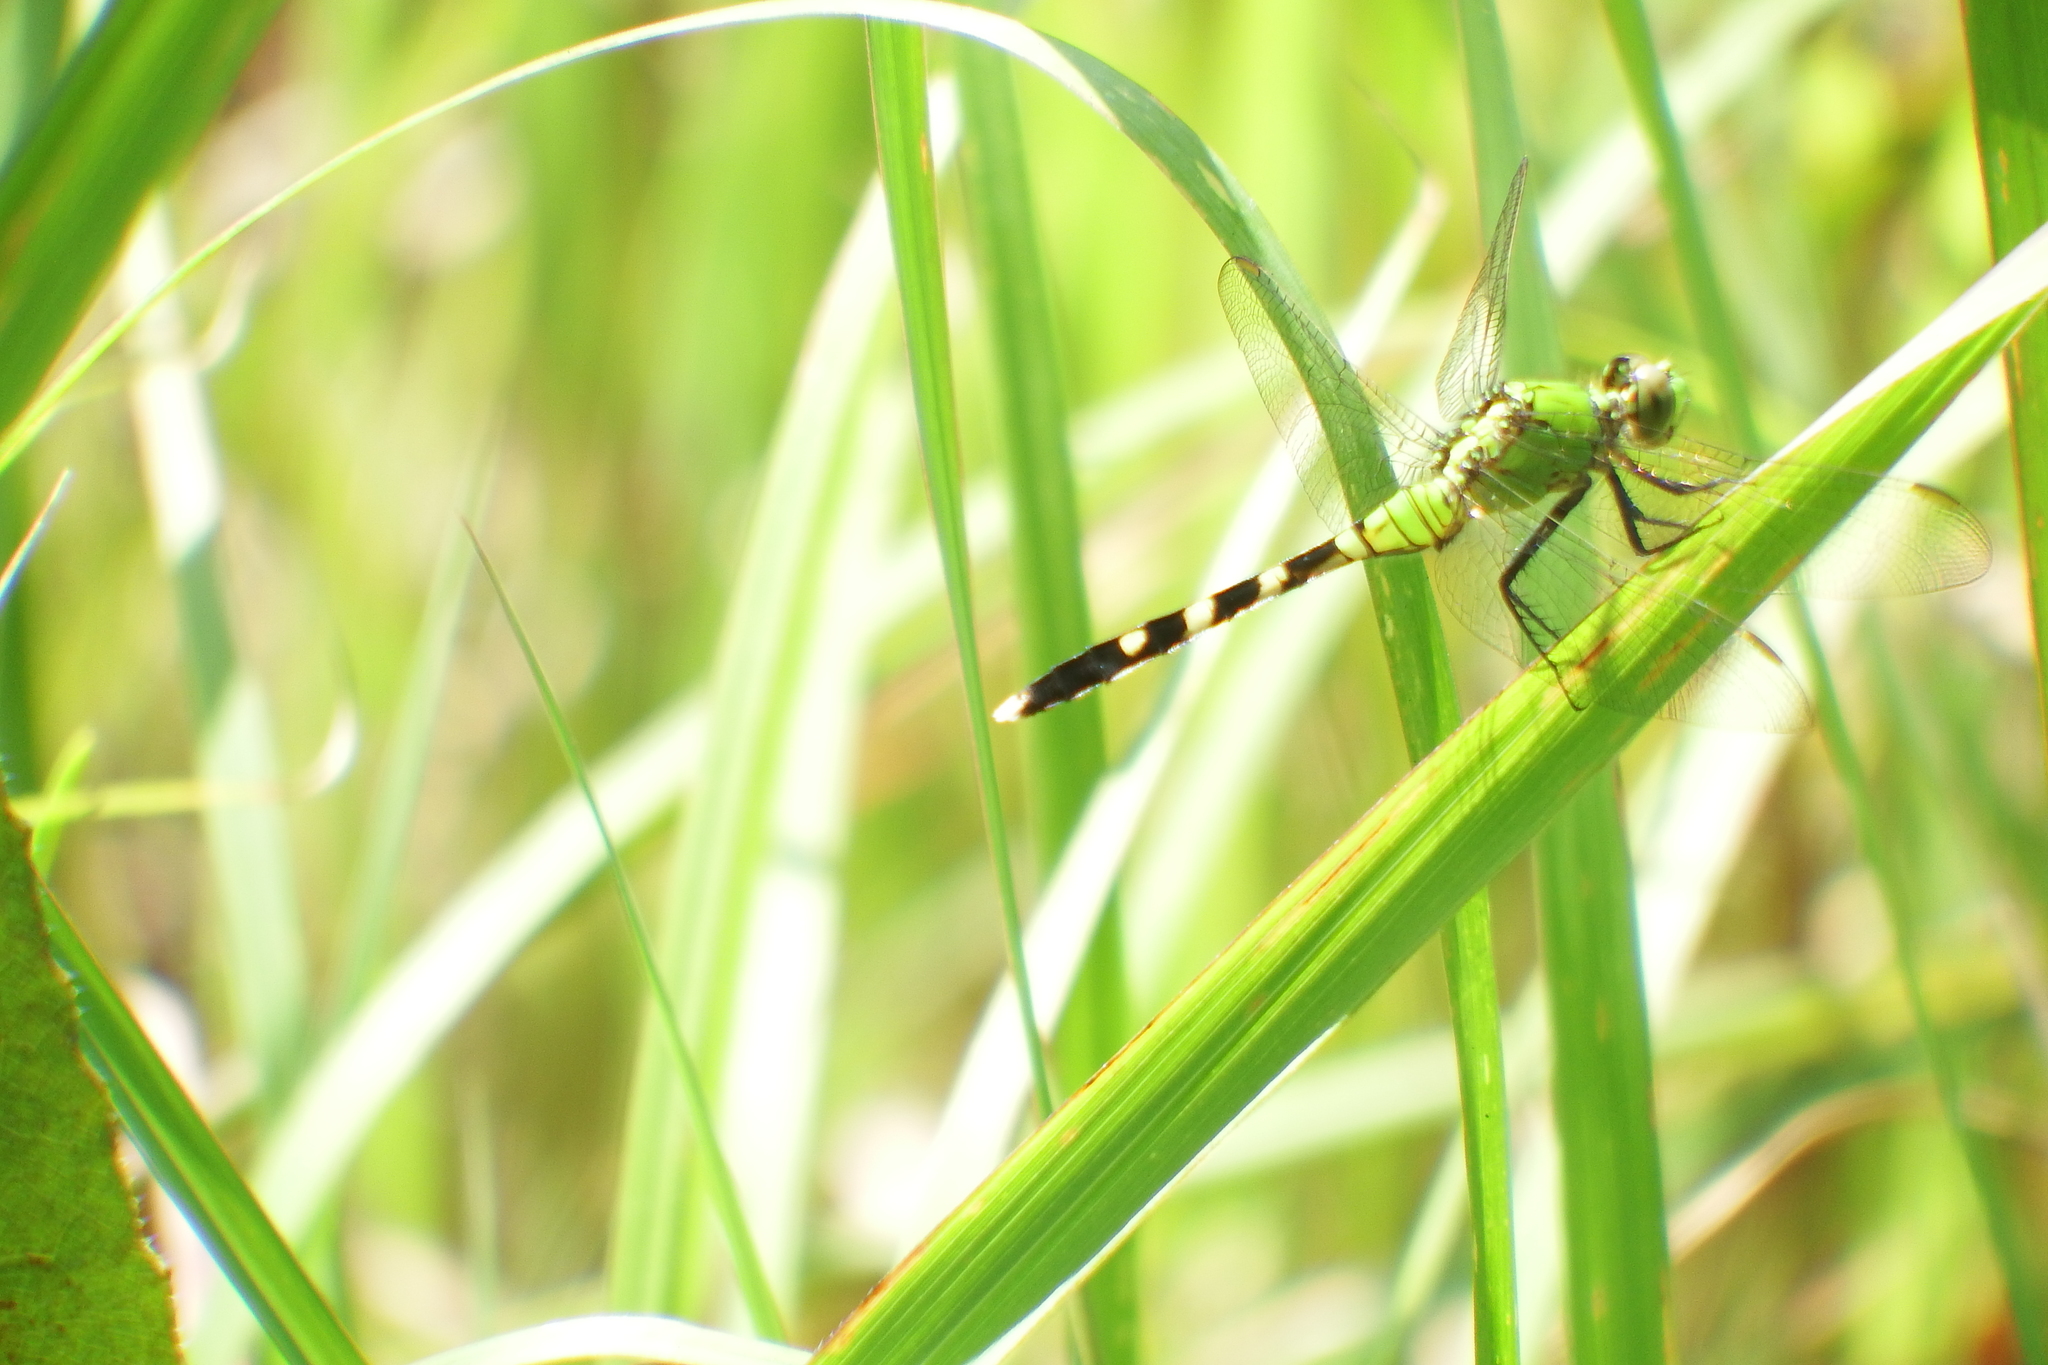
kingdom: Animalia
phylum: Arthropoda
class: Insecta
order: Odonata
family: Libellulidae
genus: Erythemis
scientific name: Erythemis simplicicollis
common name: Eastern pondhawk
